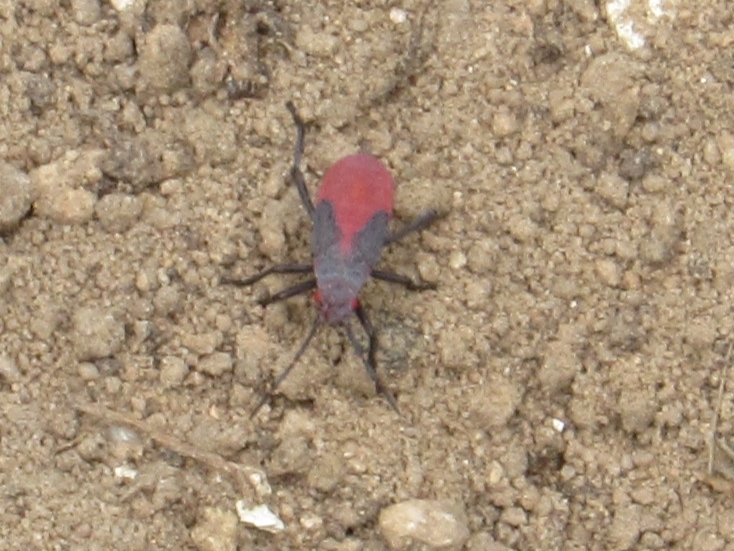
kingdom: Animalia
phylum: Arthropoda
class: Insecta
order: Hemiptera
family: Rhopalidae
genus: Jadera
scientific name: Jadera haematoloma
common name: Red-shouldered bug
